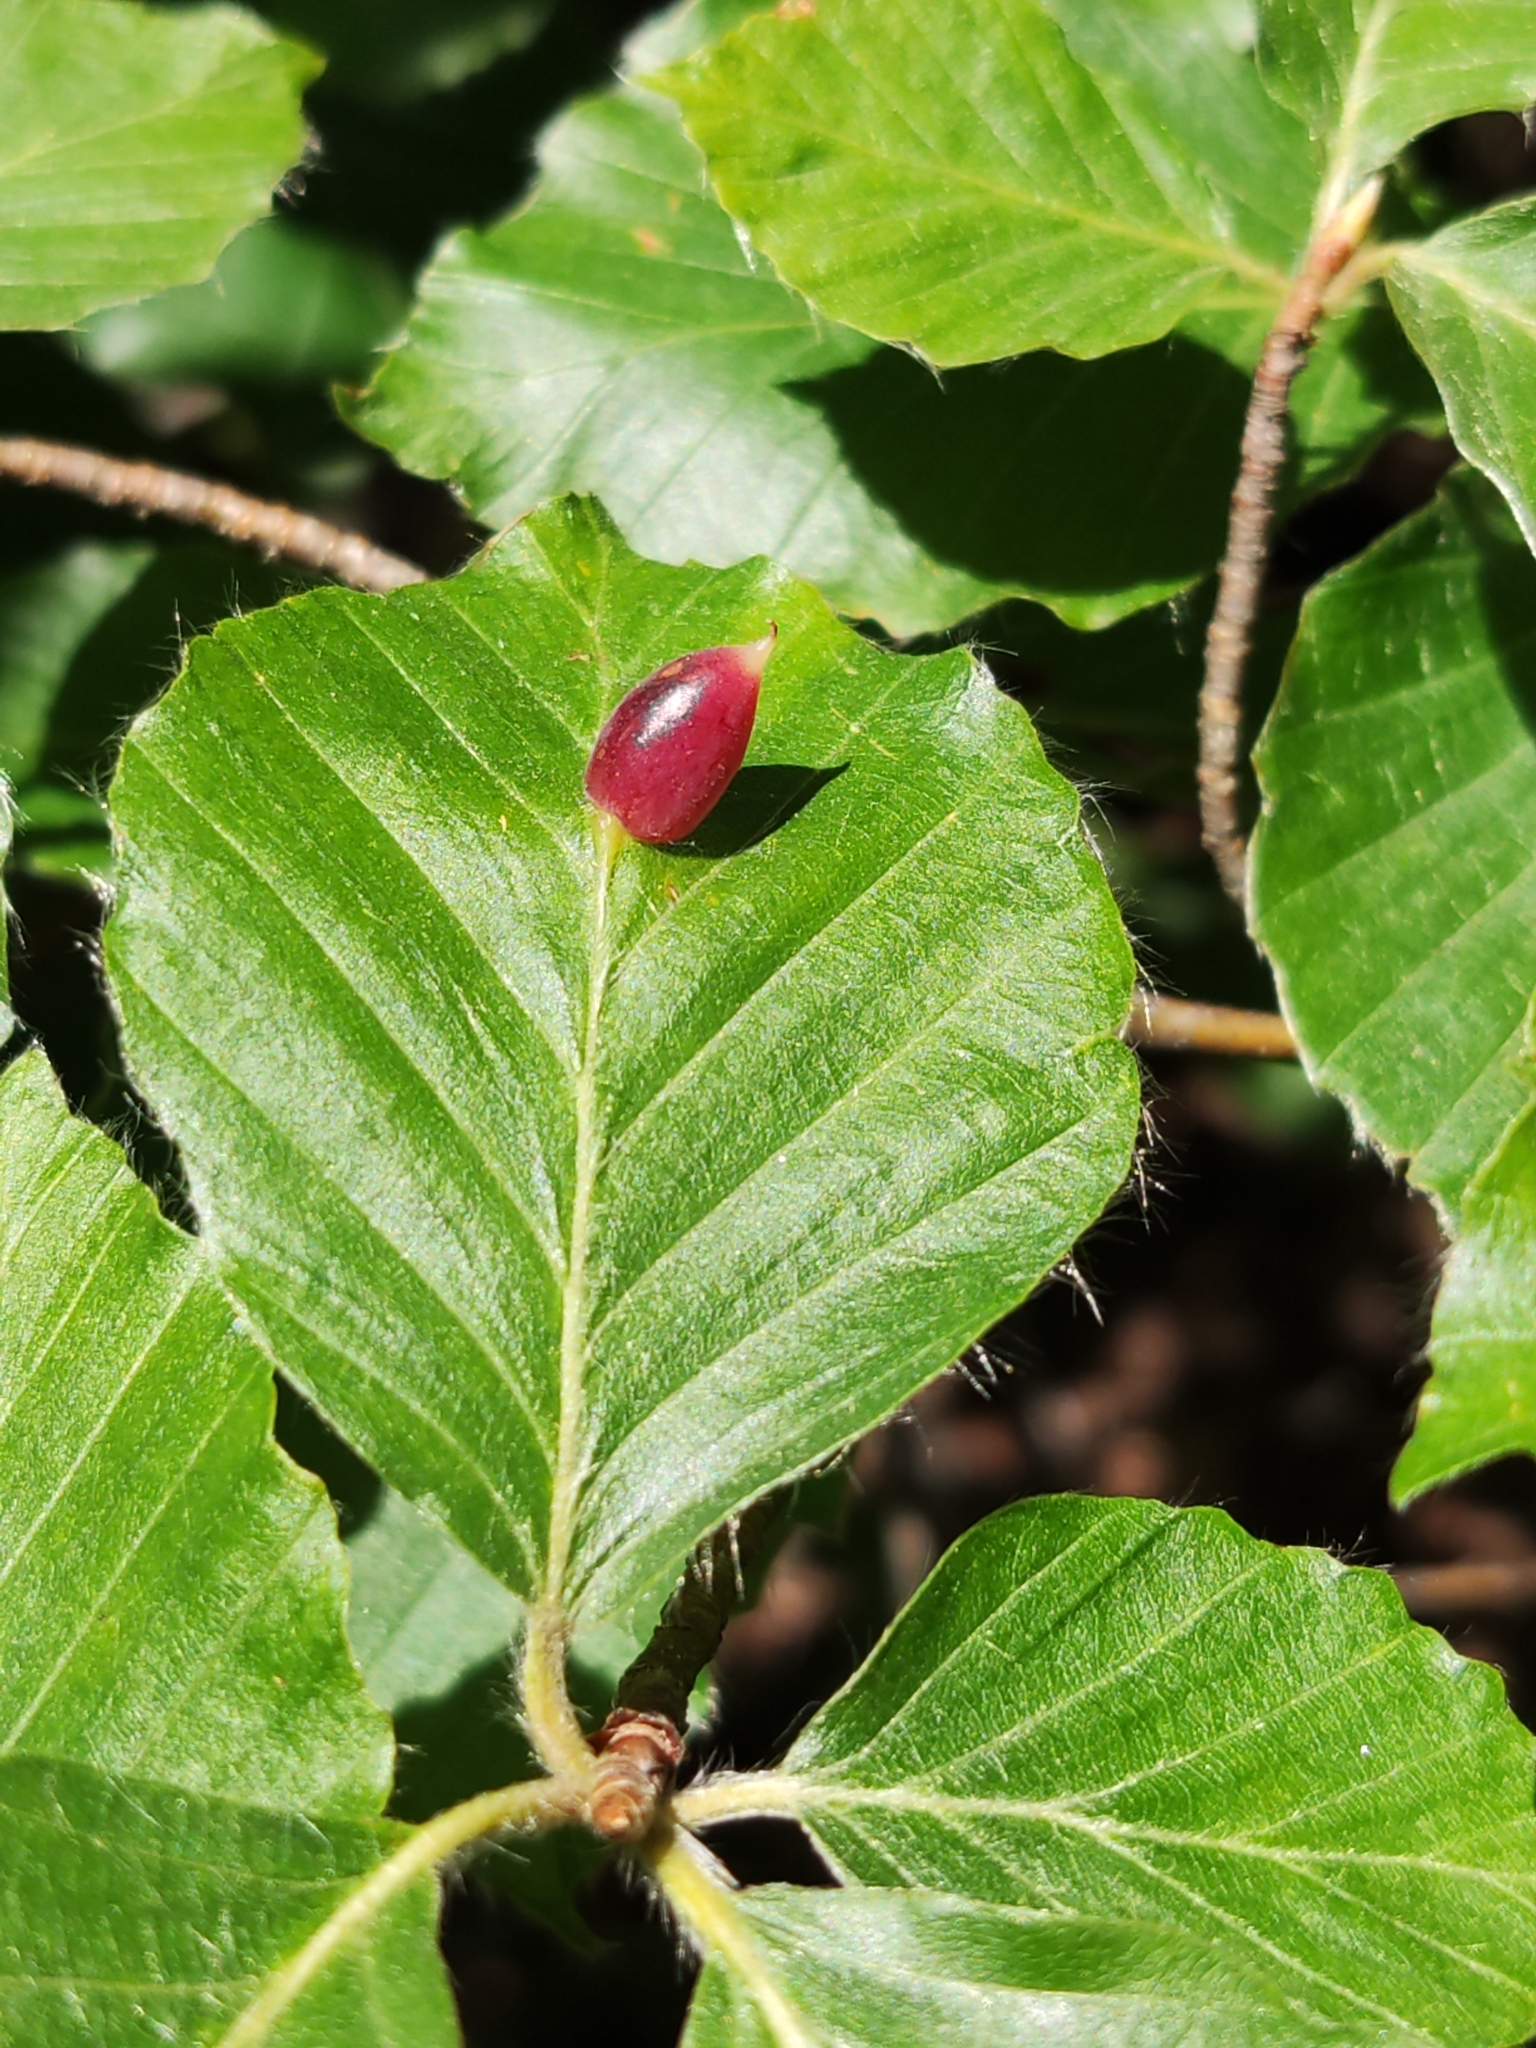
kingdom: Animalia
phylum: Arthropoda
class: Insecta
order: Diptera
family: Cecidomyiidae
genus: Mikiola
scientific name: Mikiola fagi
